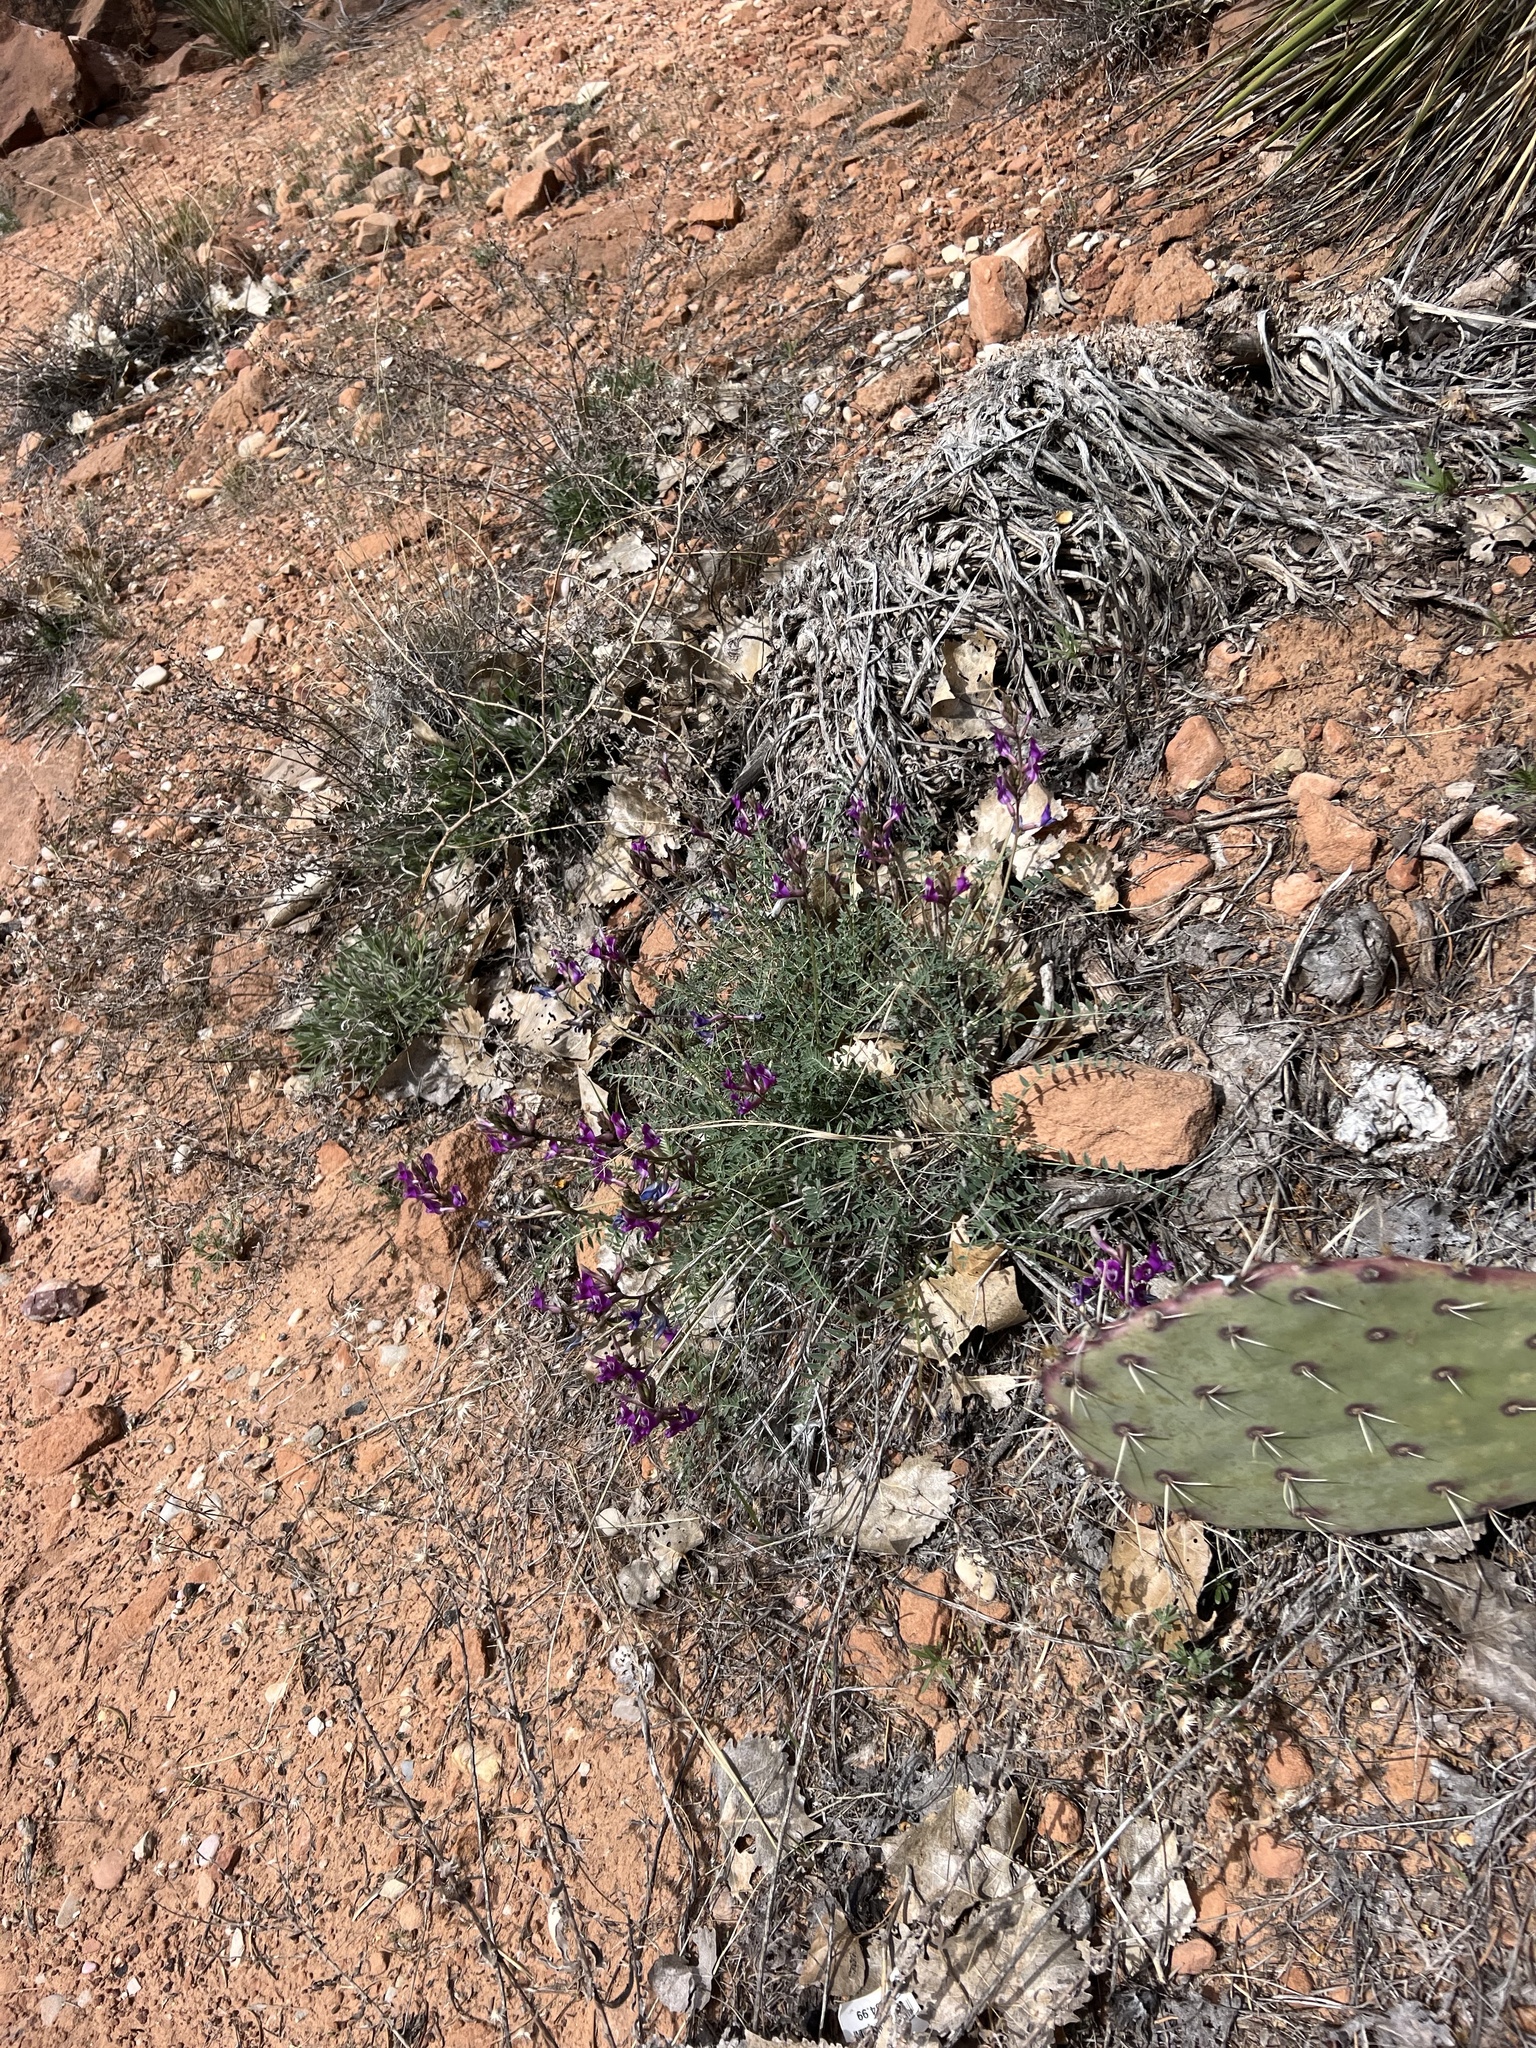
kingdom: Plantae
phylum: Tracheophyta
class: Magnoliopsida
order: Fabales
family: Fabaceae
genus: Astragalus
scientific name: Astragalus zionis
